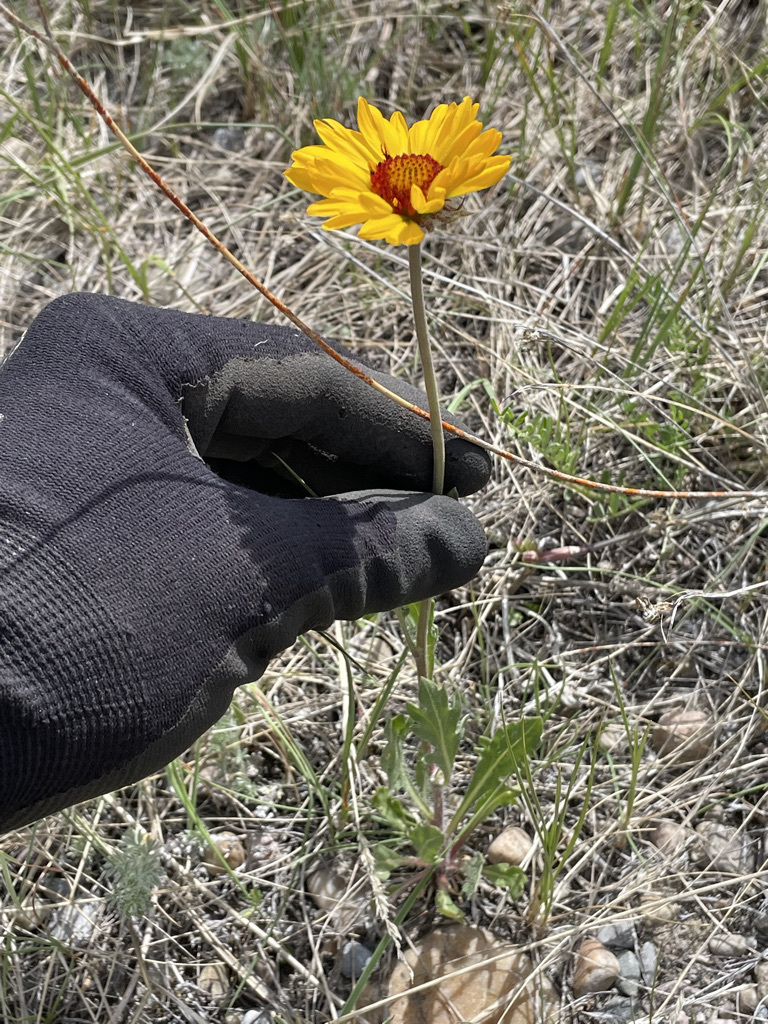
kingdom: Plantae
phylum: Tracheophyta
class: Magnoliopsida
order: Asterales
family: Asteraceae
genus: Gaillardia
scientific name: Gaillardia aristata
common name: Blanket-flower
